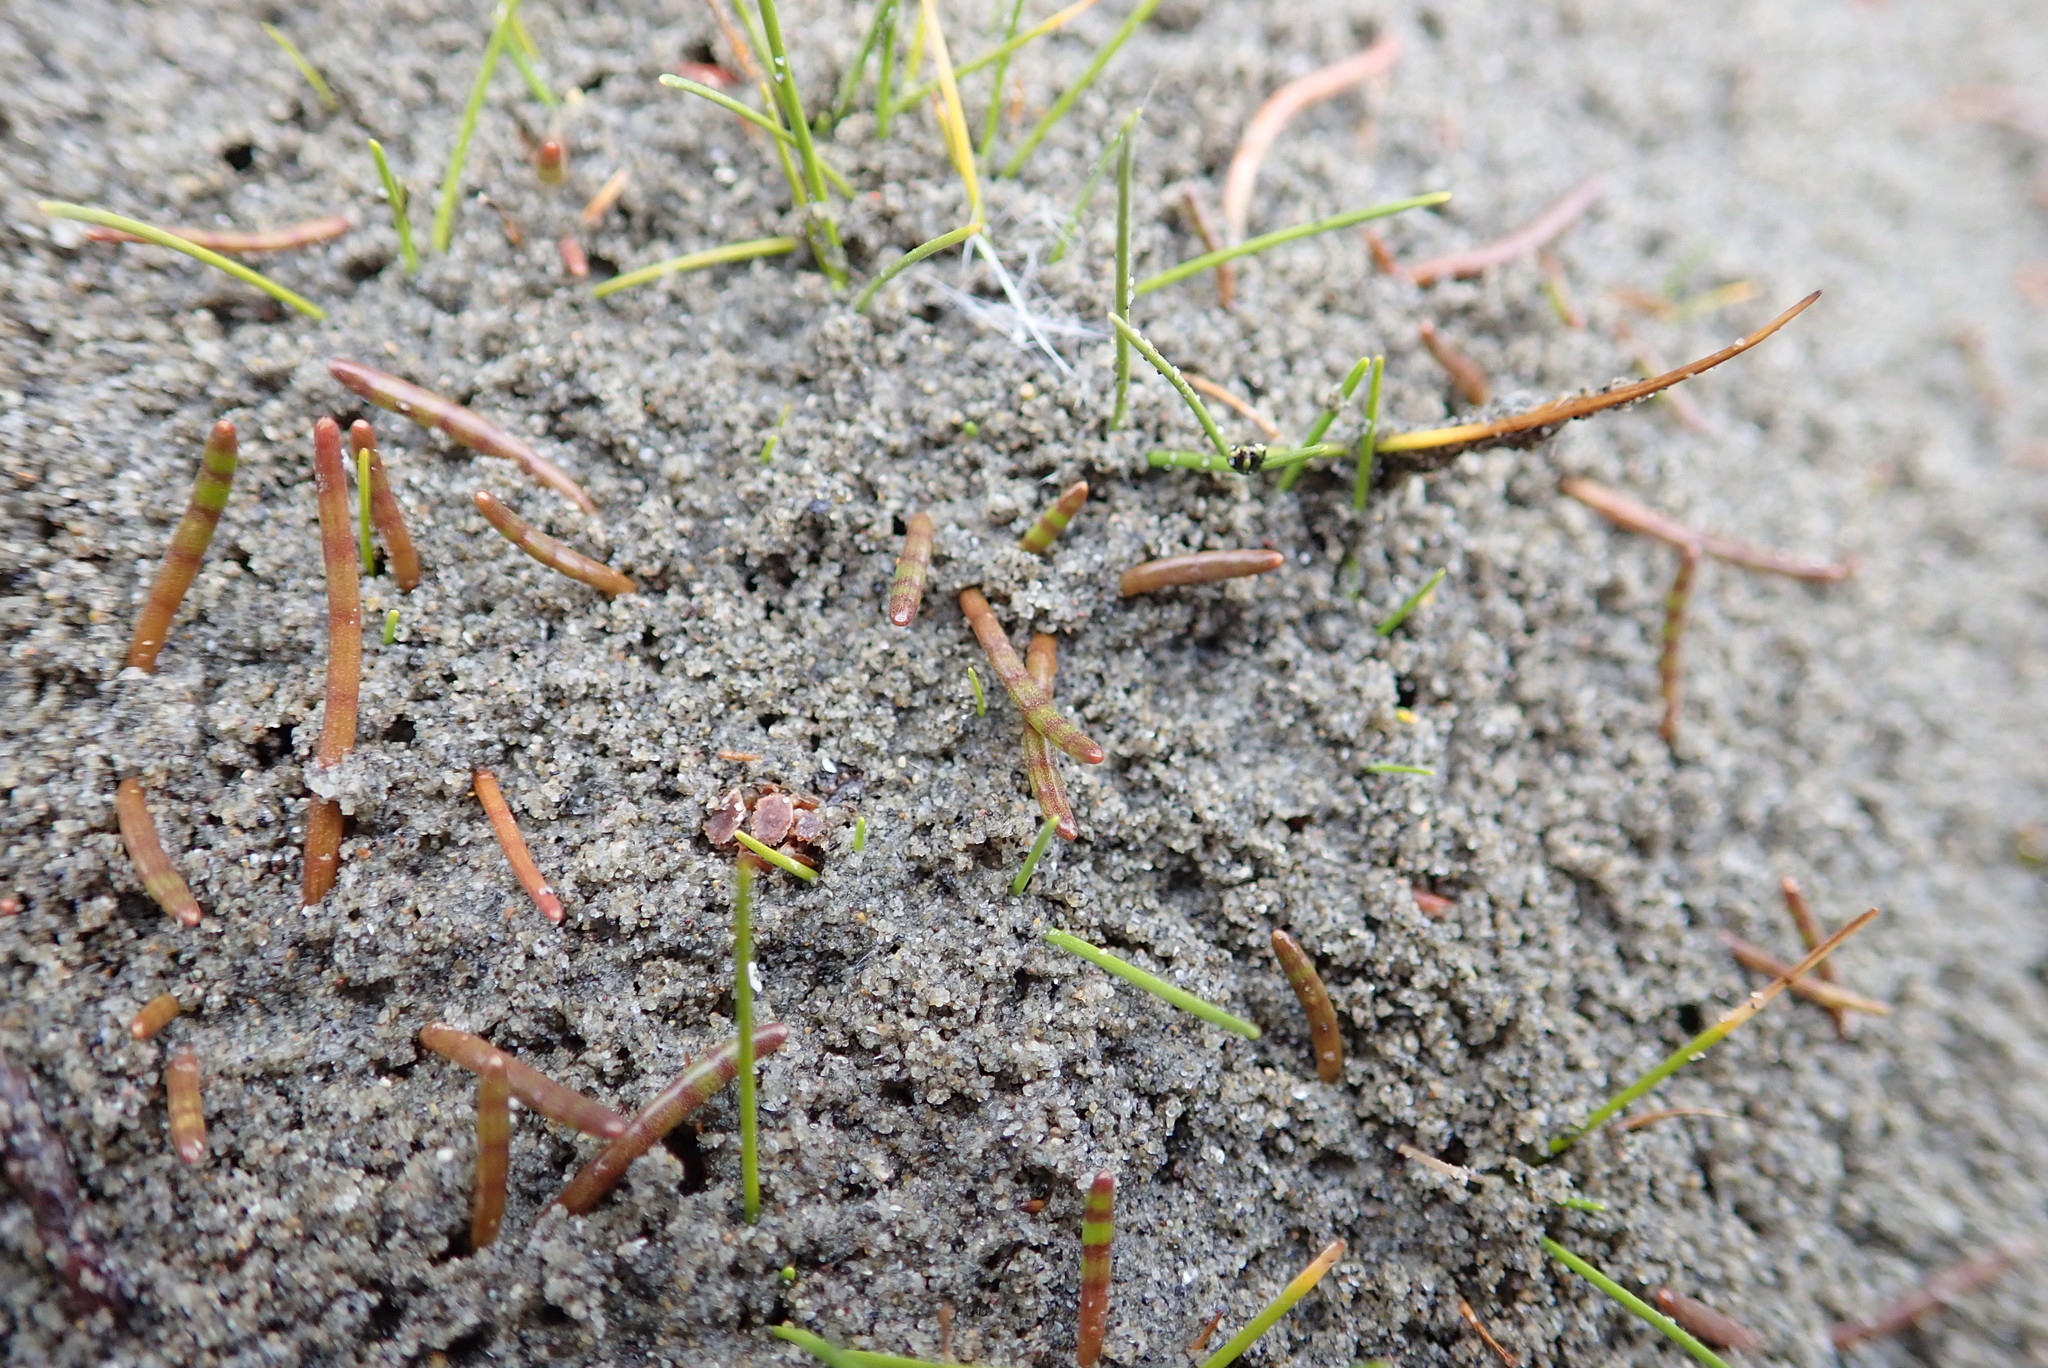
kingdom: Plantae
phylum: Tracheophyta
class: Magnoliopsida
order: Apiales
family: Apiaceae
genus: Lilaeopsis
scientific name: Lilaeopsis novae-zelandiae
